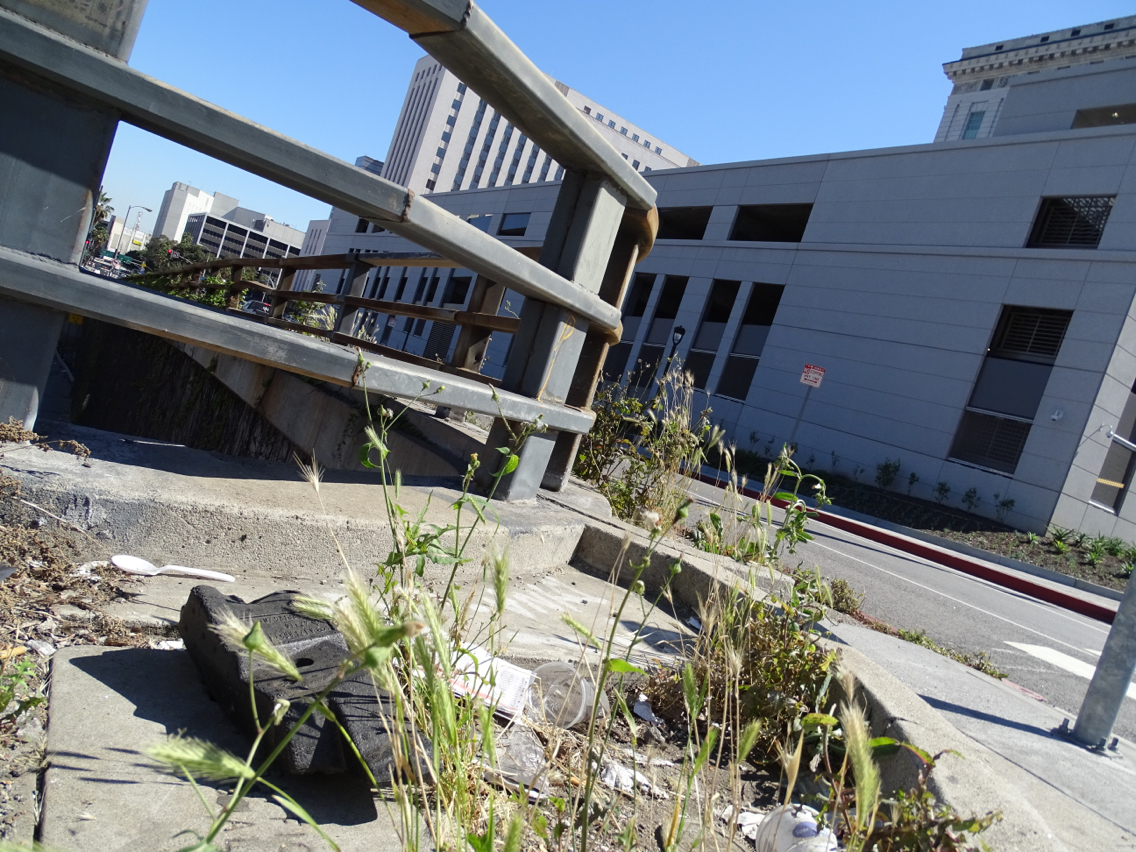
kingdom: Plantae
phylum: Tracheophyta
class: Liliopsida
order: Poales
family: Poaceae
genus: Hordeum
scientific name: Hordeum murinum
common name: Wall barley
